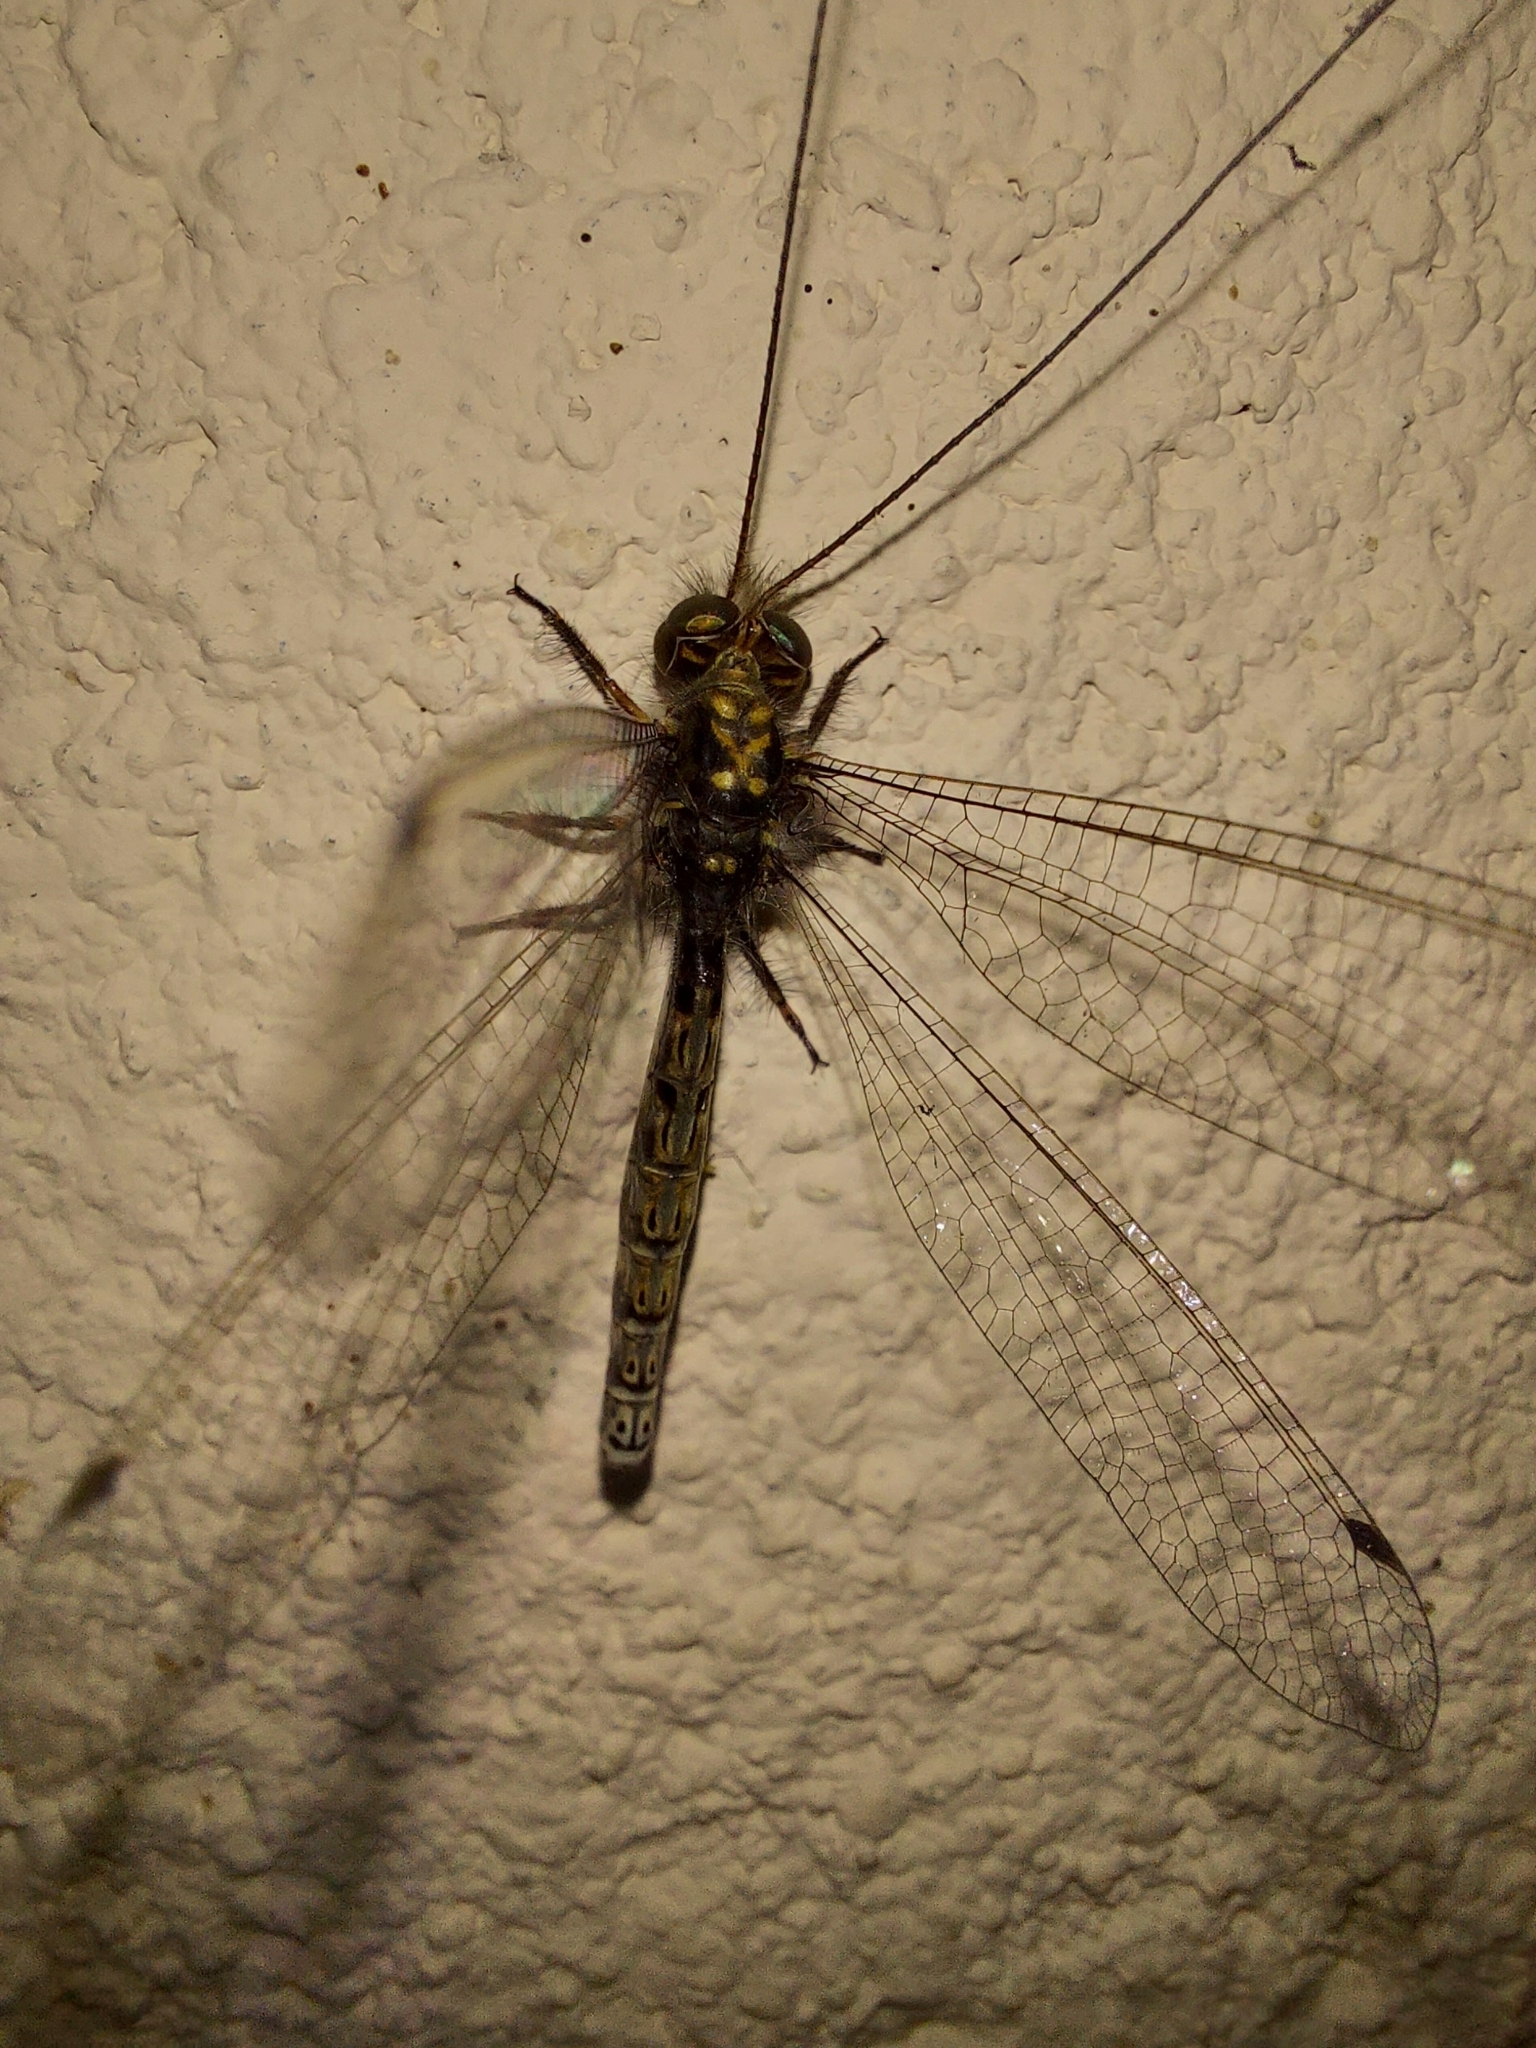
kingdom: Animalia
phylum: Arthropoda
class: Insecta
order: Neuroptera
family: Ascalaphidae
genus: Ascalorphne
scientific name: Ascalorphne macrocerca
